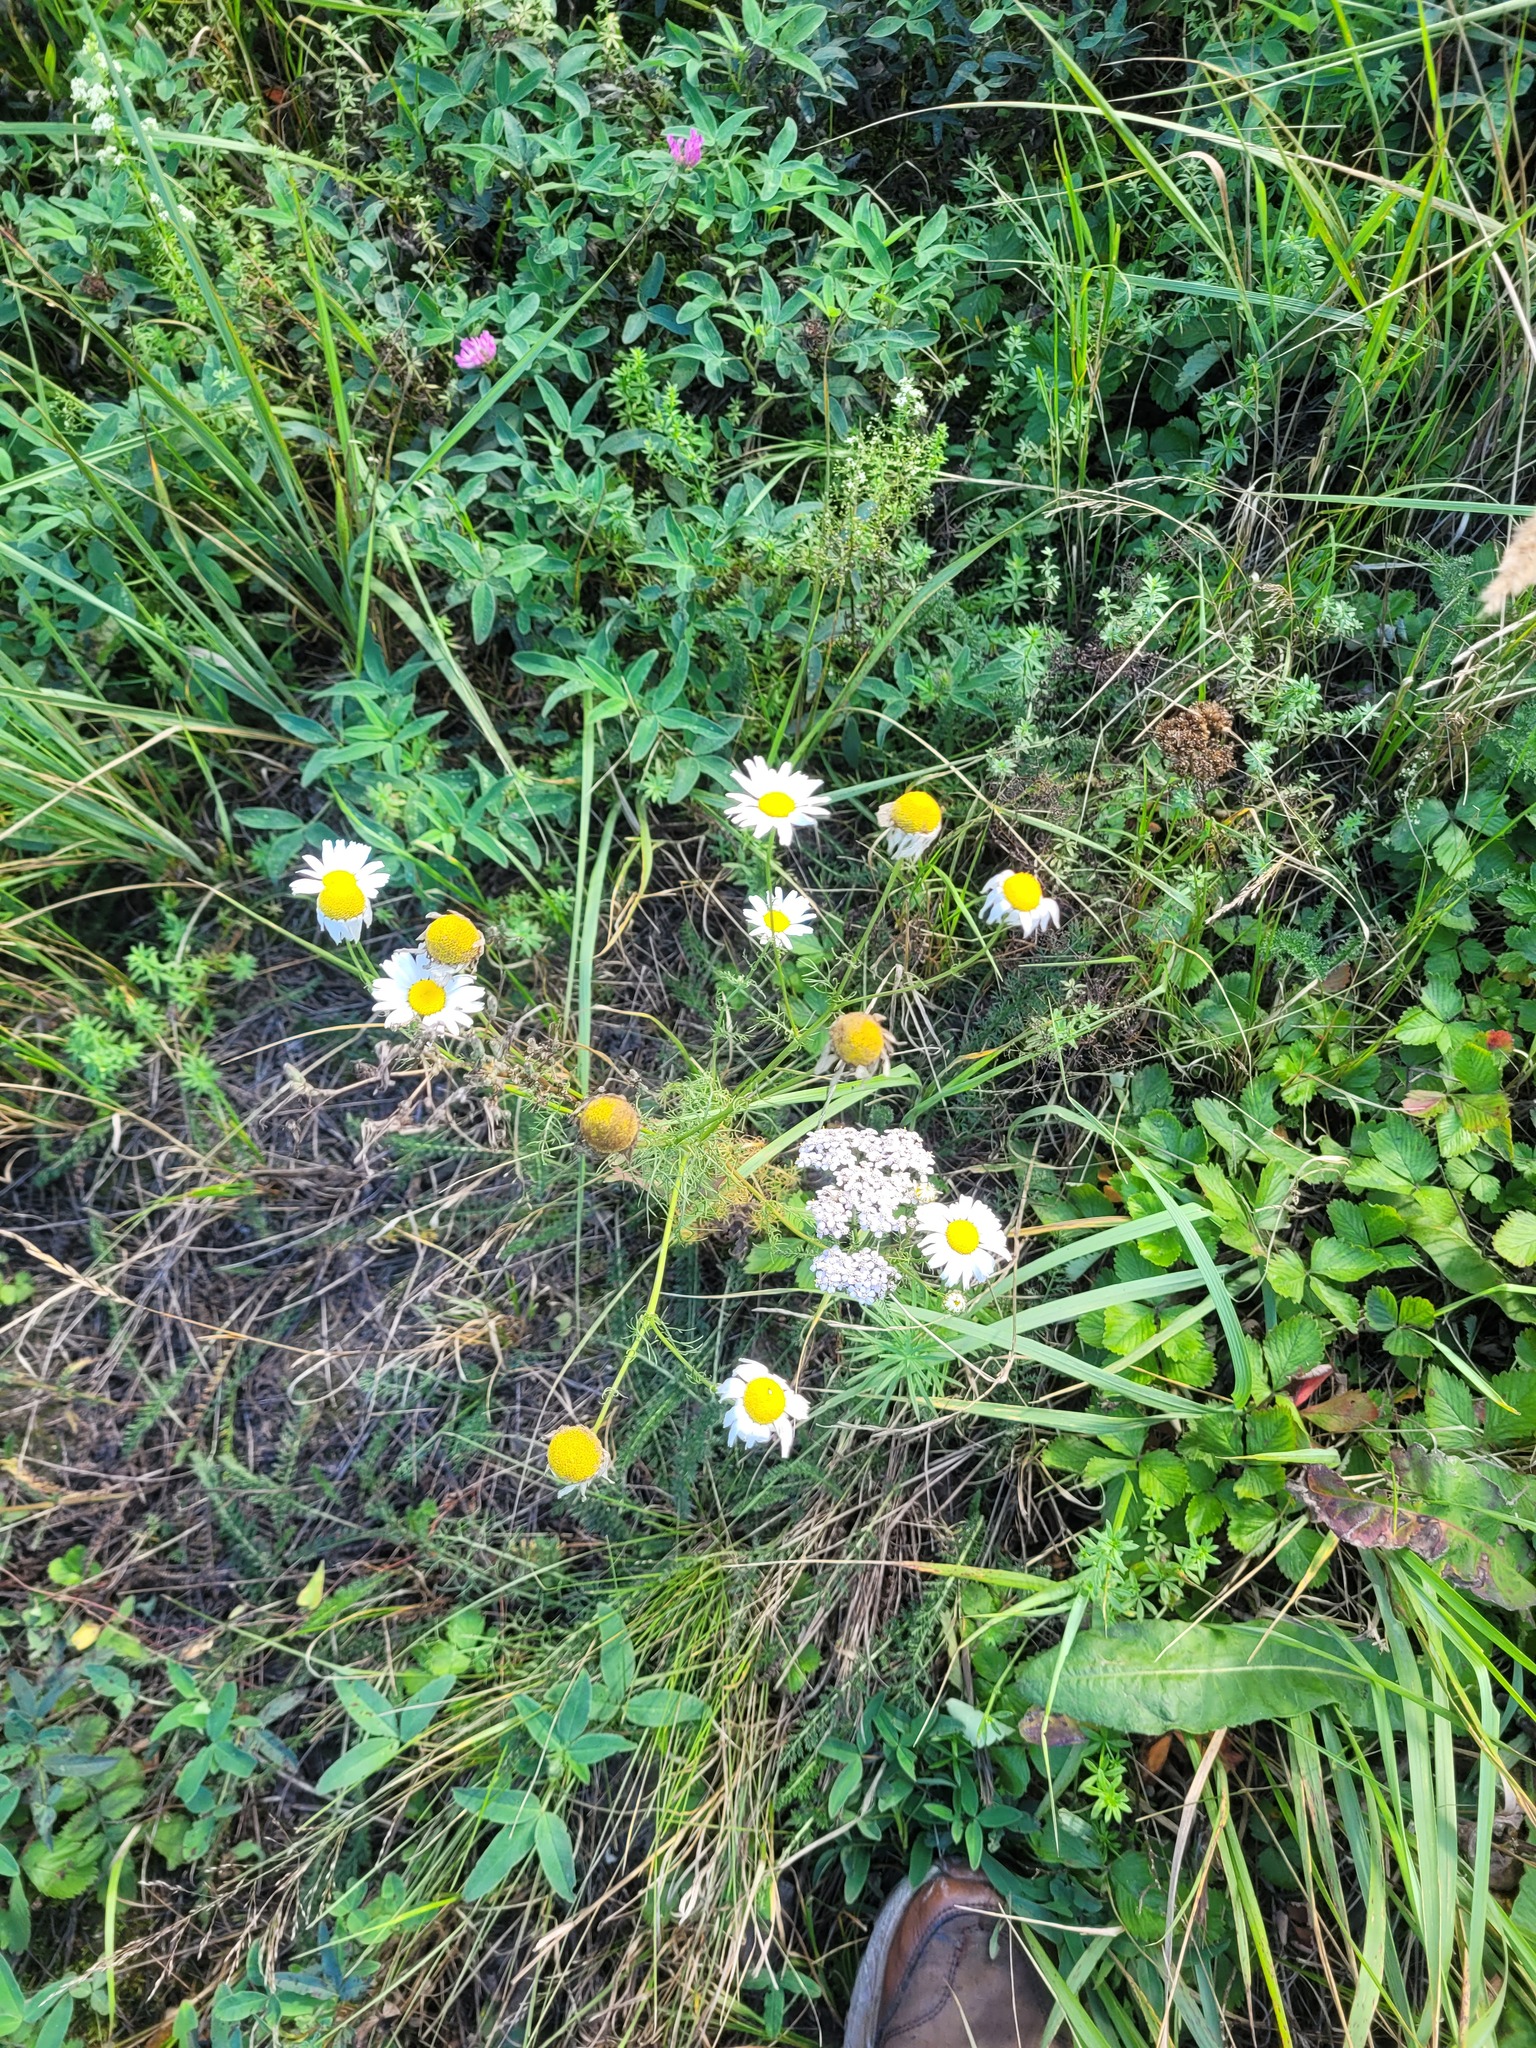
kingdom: Plantae
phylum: Tracheophyta
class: Magnoliopsida
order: Asterales
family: Asteraceae
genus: Tripleurospermum
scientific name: Tripleurospermum inodorum
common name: Scentless mayweed
